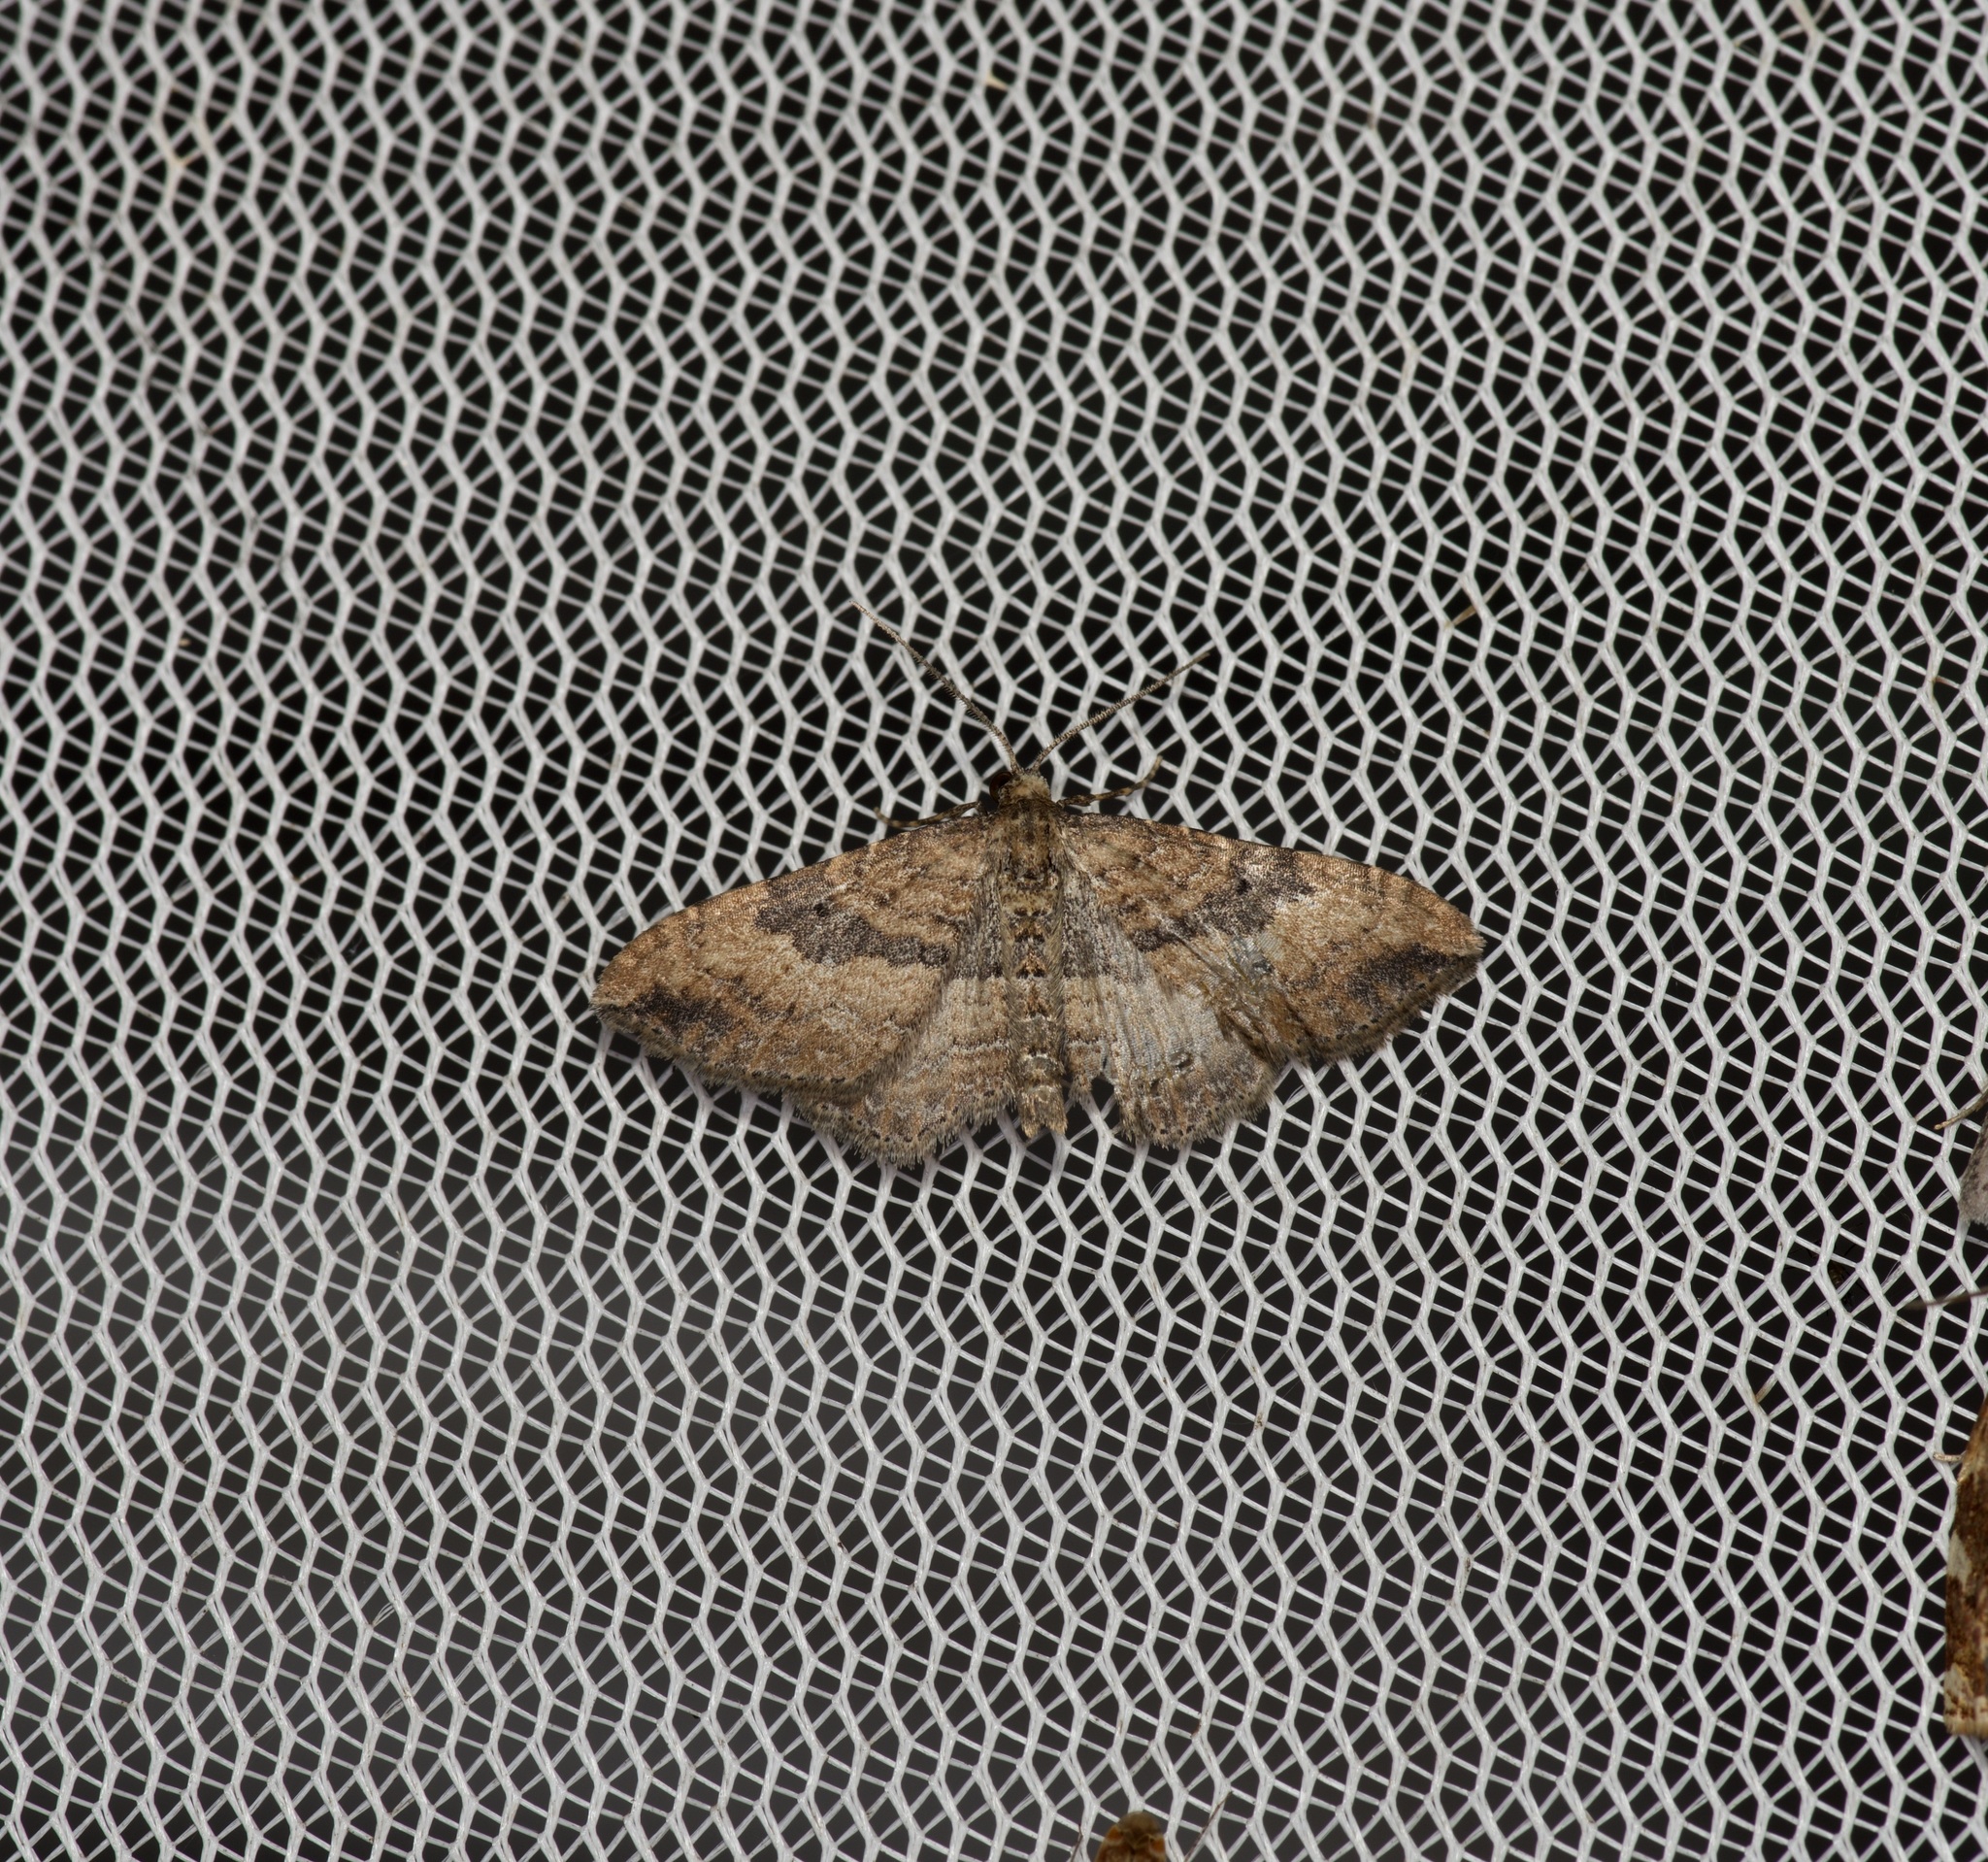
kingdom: Animalia
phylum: Arthropoda
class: Insecta
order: Lepidoptera
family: Geometridae
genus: Orthonama
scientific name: Orthonama obstipata
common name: The gem
